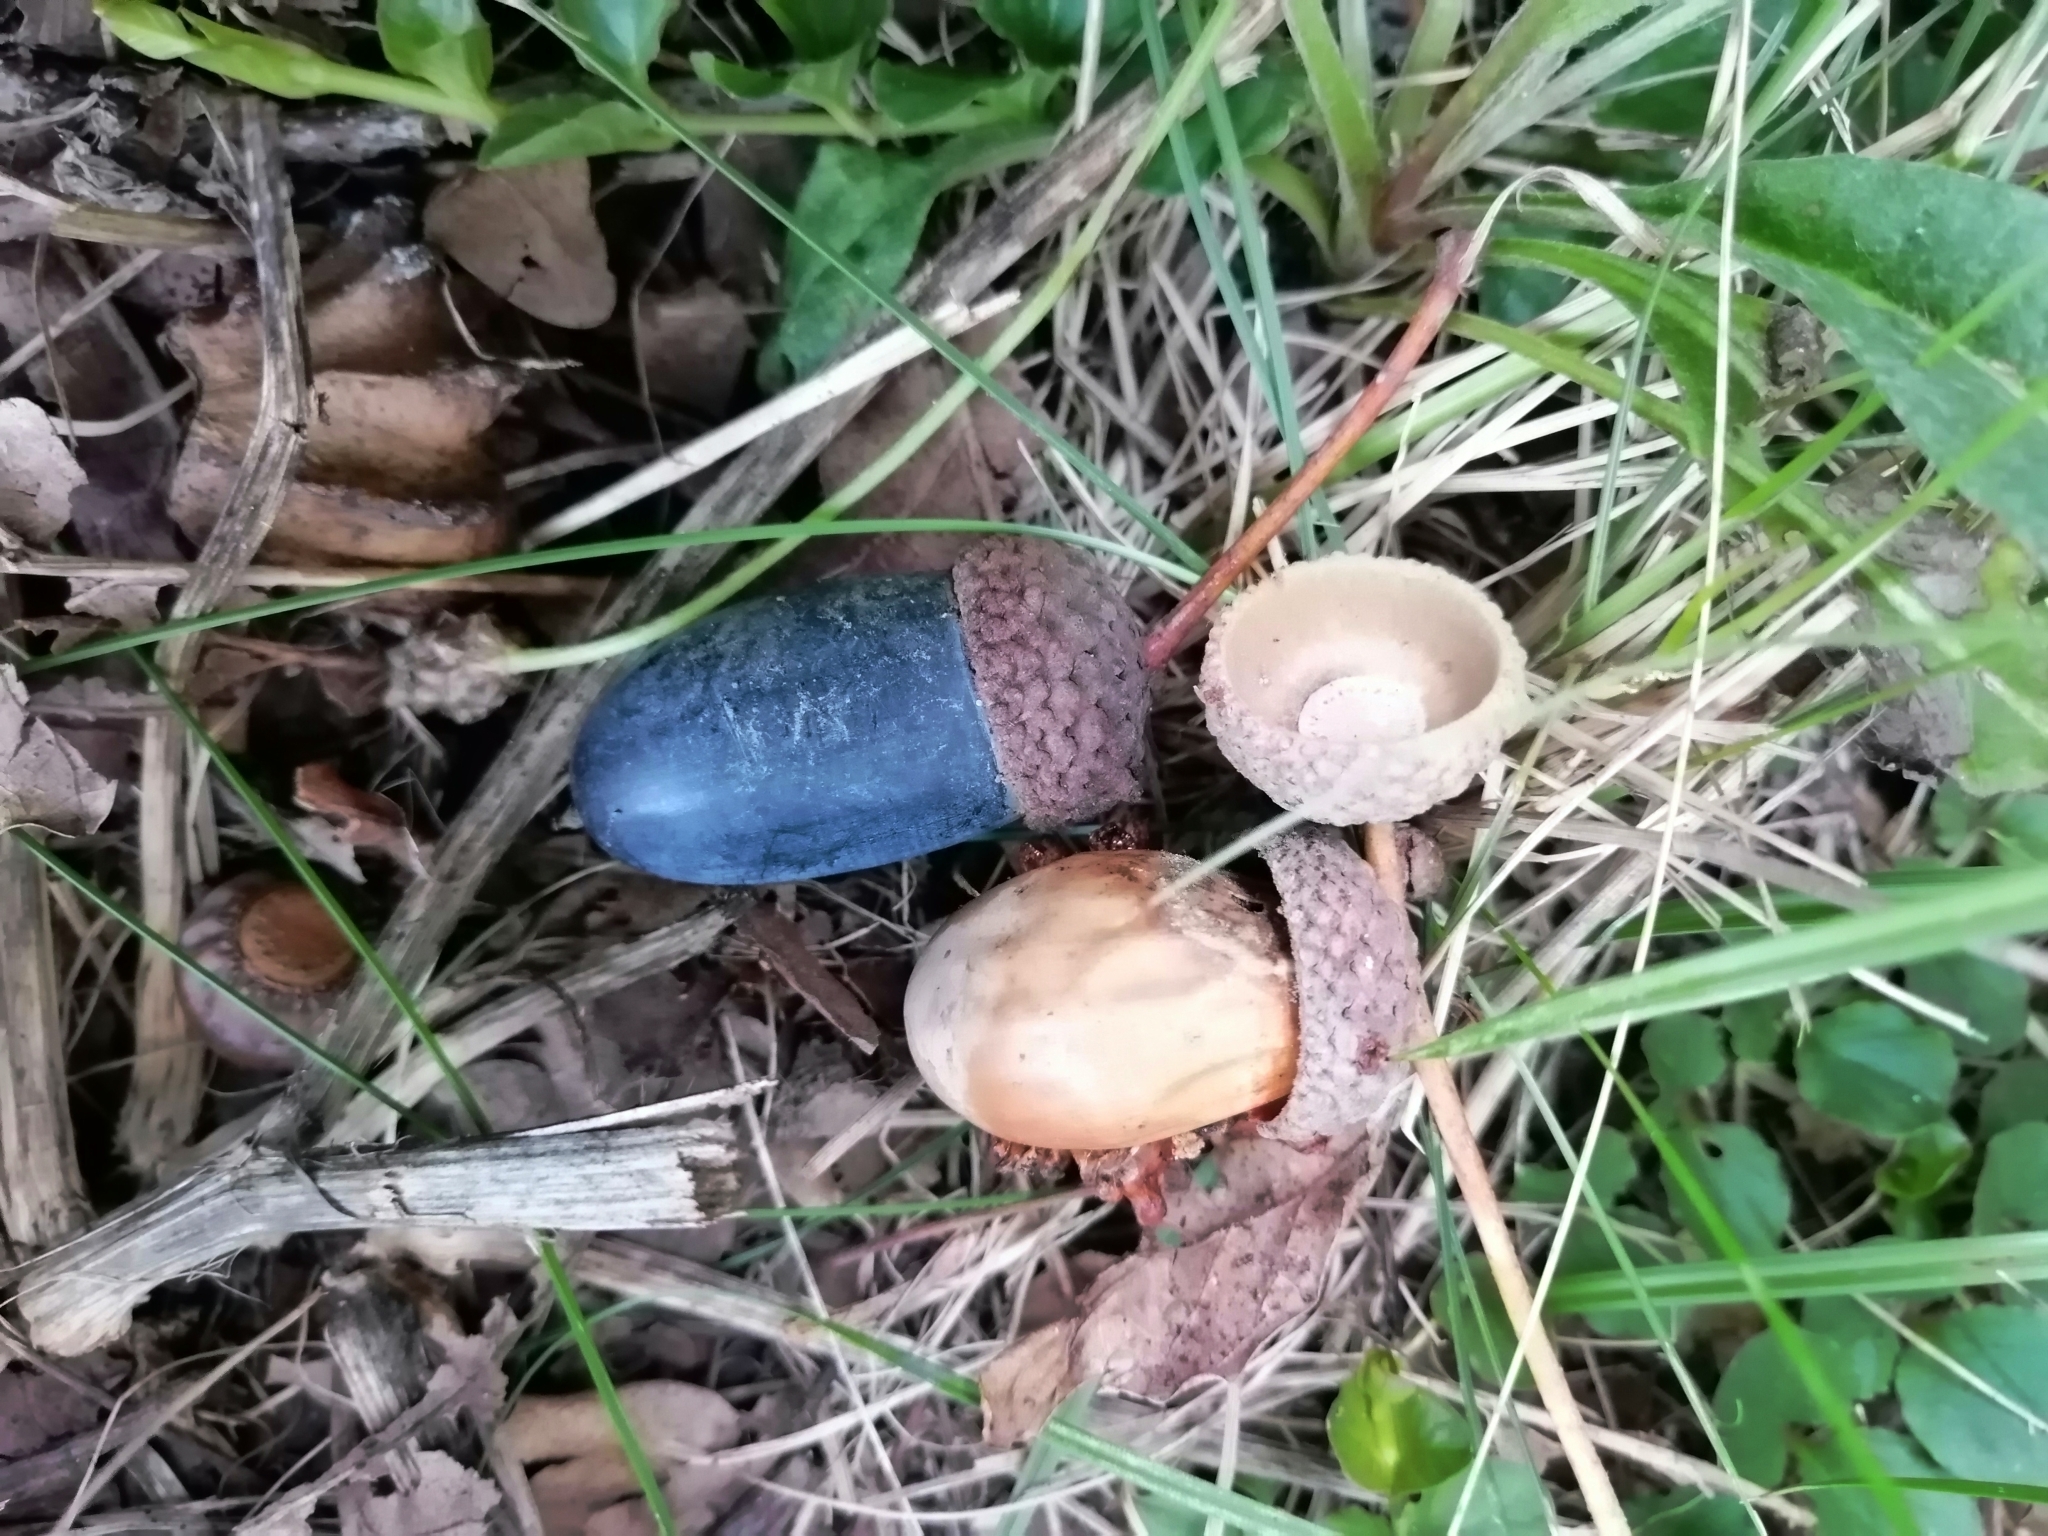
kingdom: Plantae
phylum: Tracheophyta
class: Magnoliopsida
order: Fagales
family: Fagaceae
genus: Quercus
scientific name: Quercus robur
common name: Pedunculate oak
